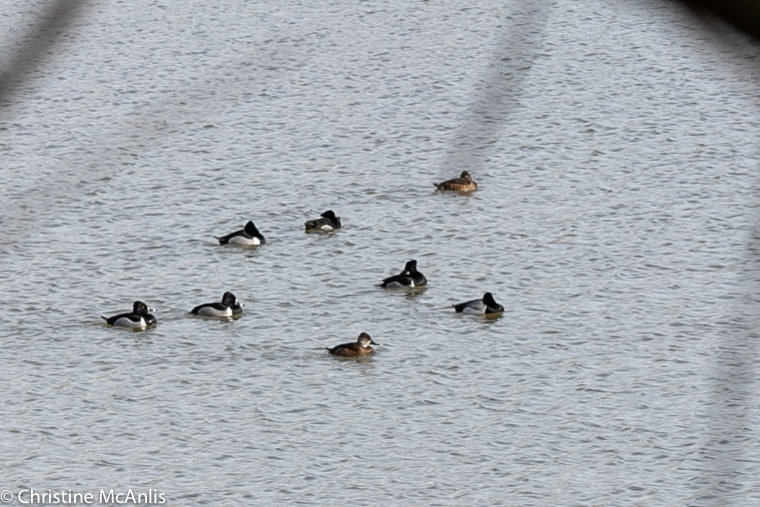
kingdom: Animalia
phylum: Chordata
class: Aves
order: Anseriformes
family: Anatidae
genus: Aythya
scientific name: Aythya collaris
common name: Ring-necked duck
